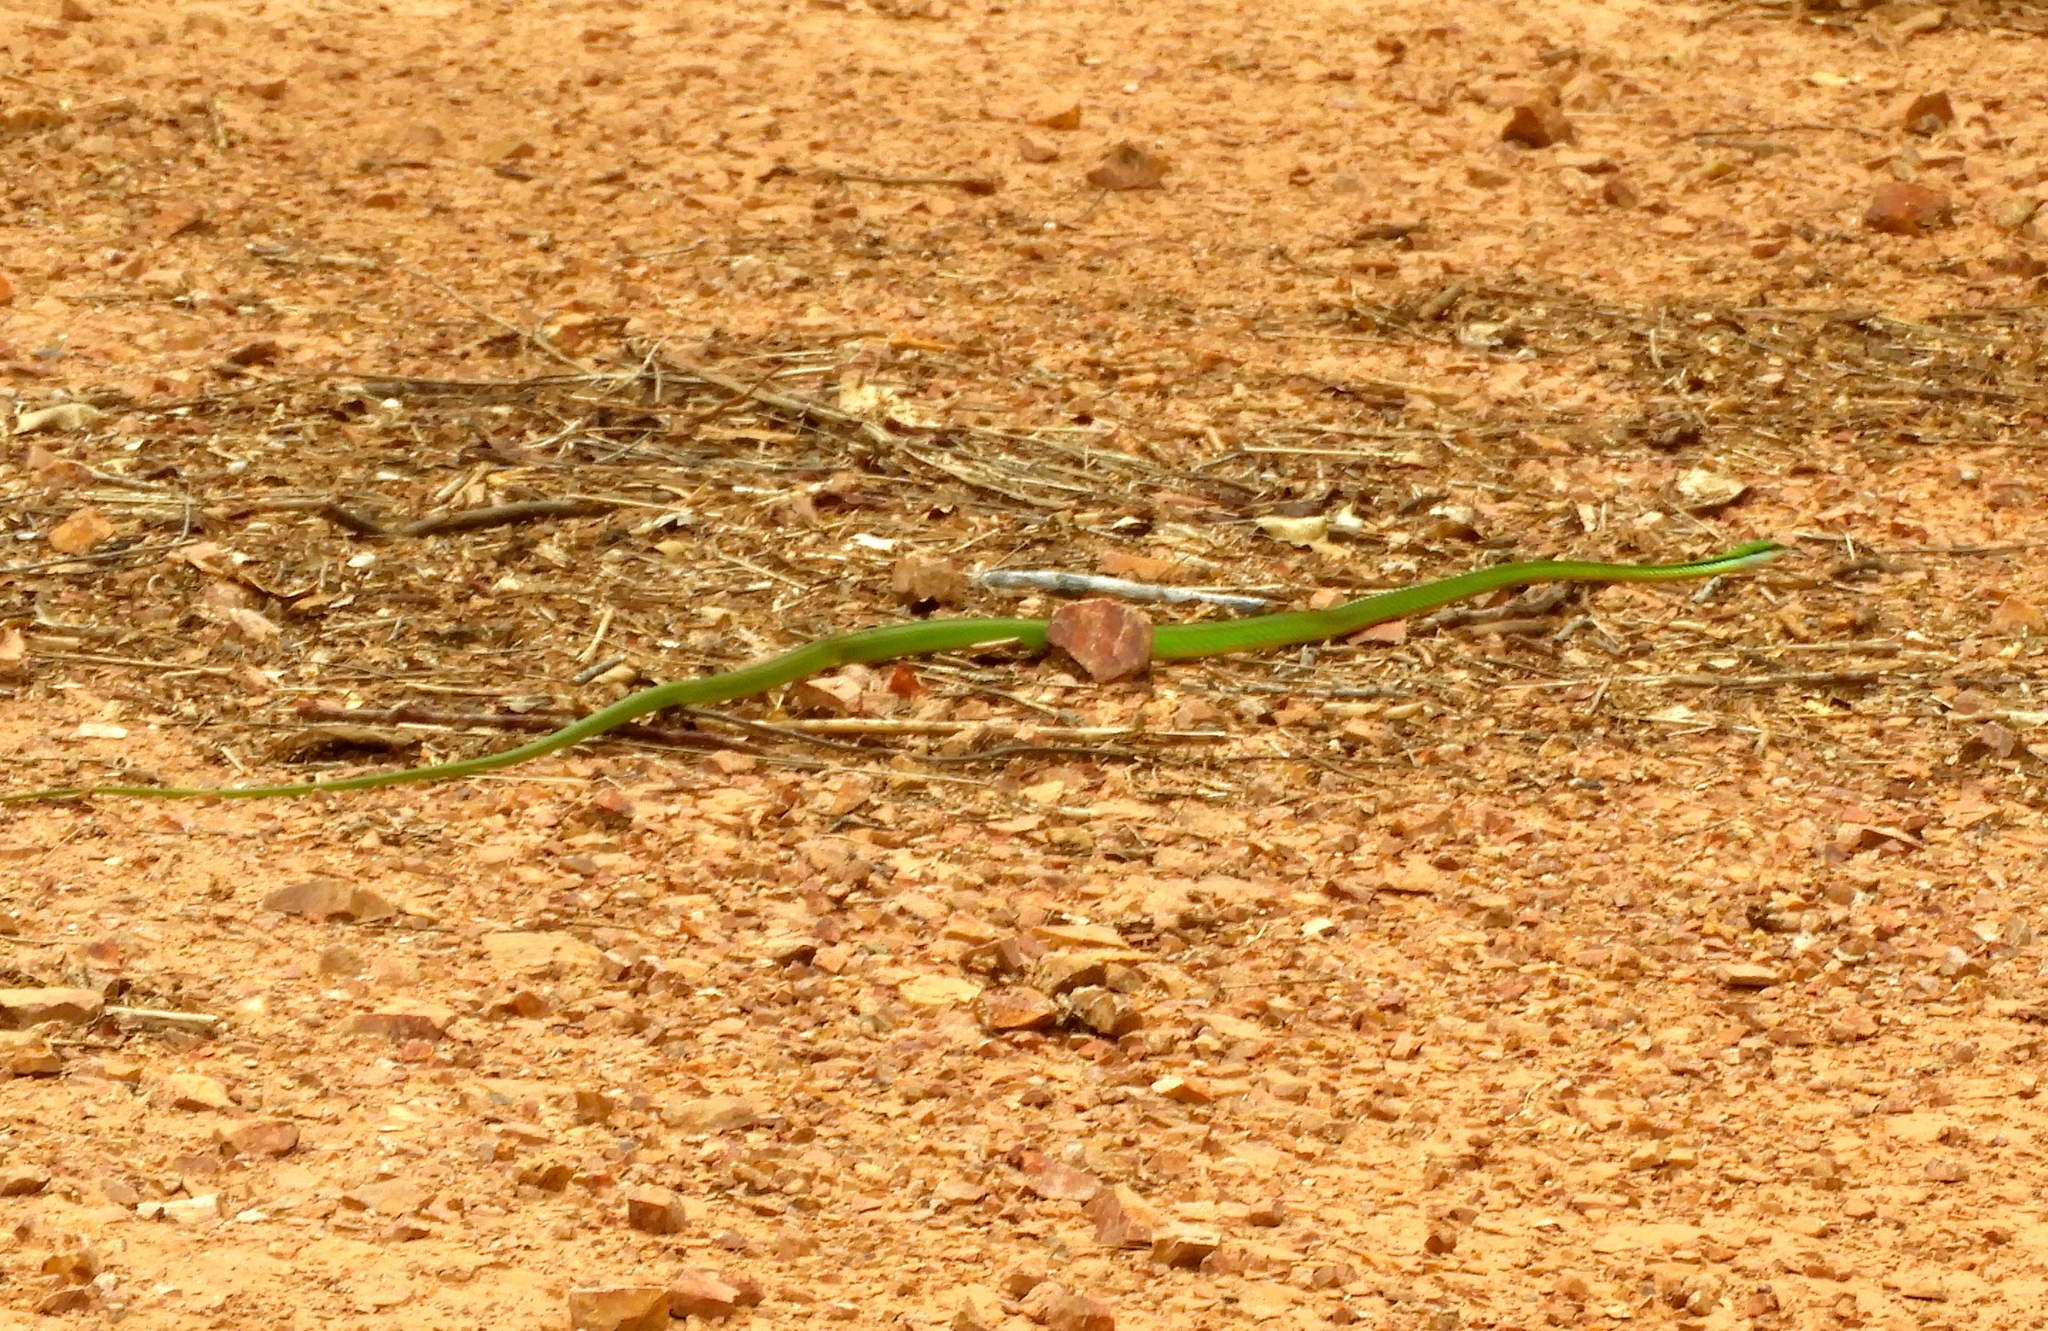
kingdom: Animalia
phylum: Chordata
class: Squamata
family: Colubridae
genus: Leptophis
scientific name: Leptophis diplotropis
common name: Pacific coast parrot snake
